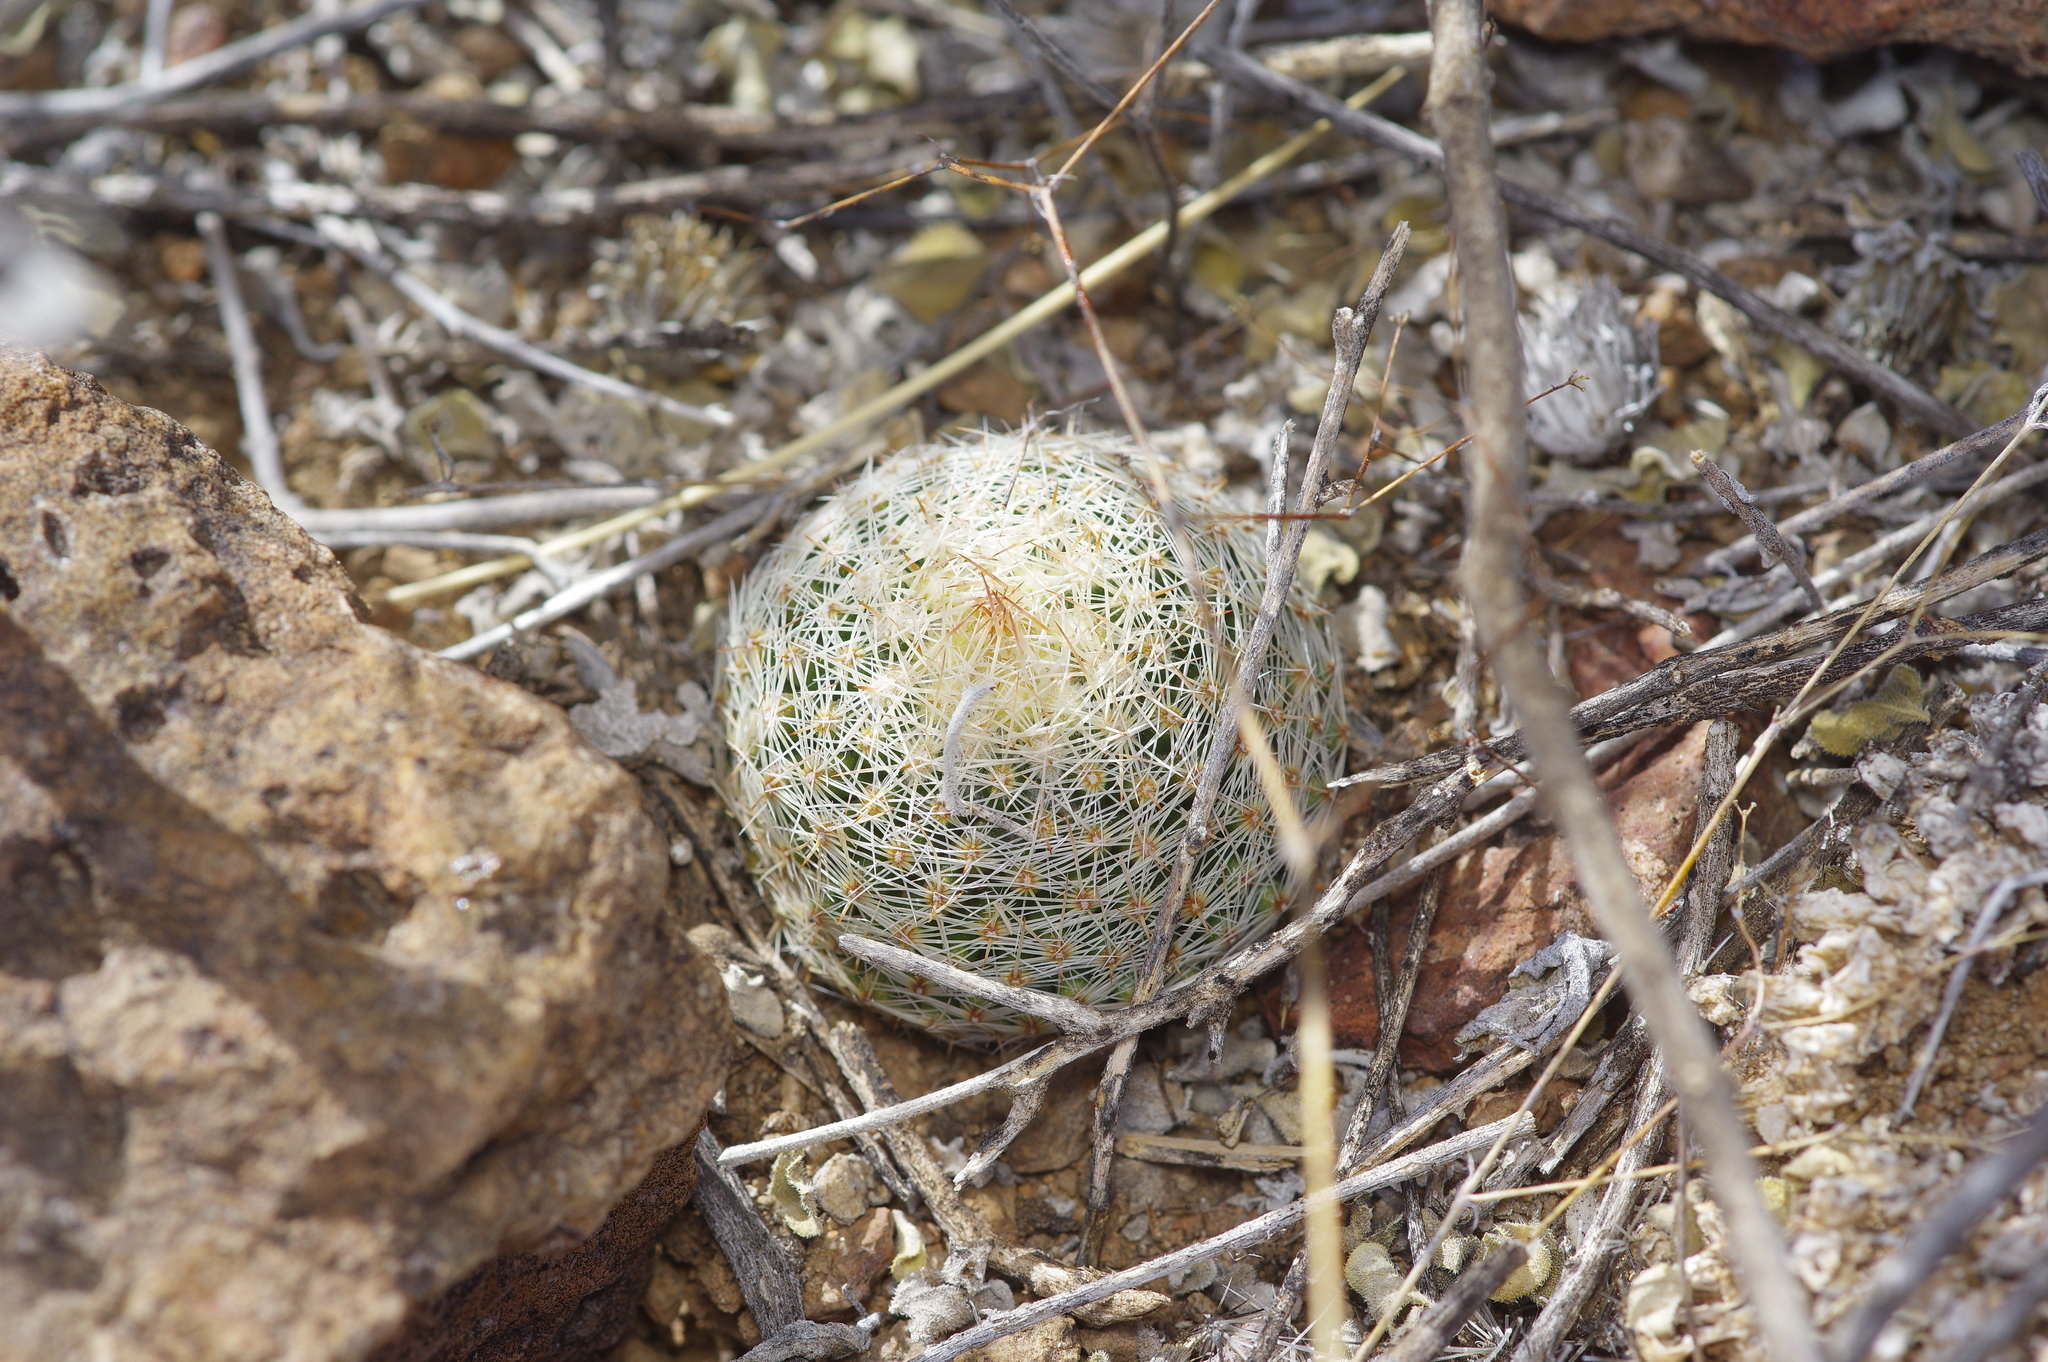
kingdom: Plantae
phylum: Tracheophyta
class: Magnoliopsida
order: Caryophyllales
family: Cactaceae
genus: Pelecyphora
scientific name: Pelecyphora dasyacantha
